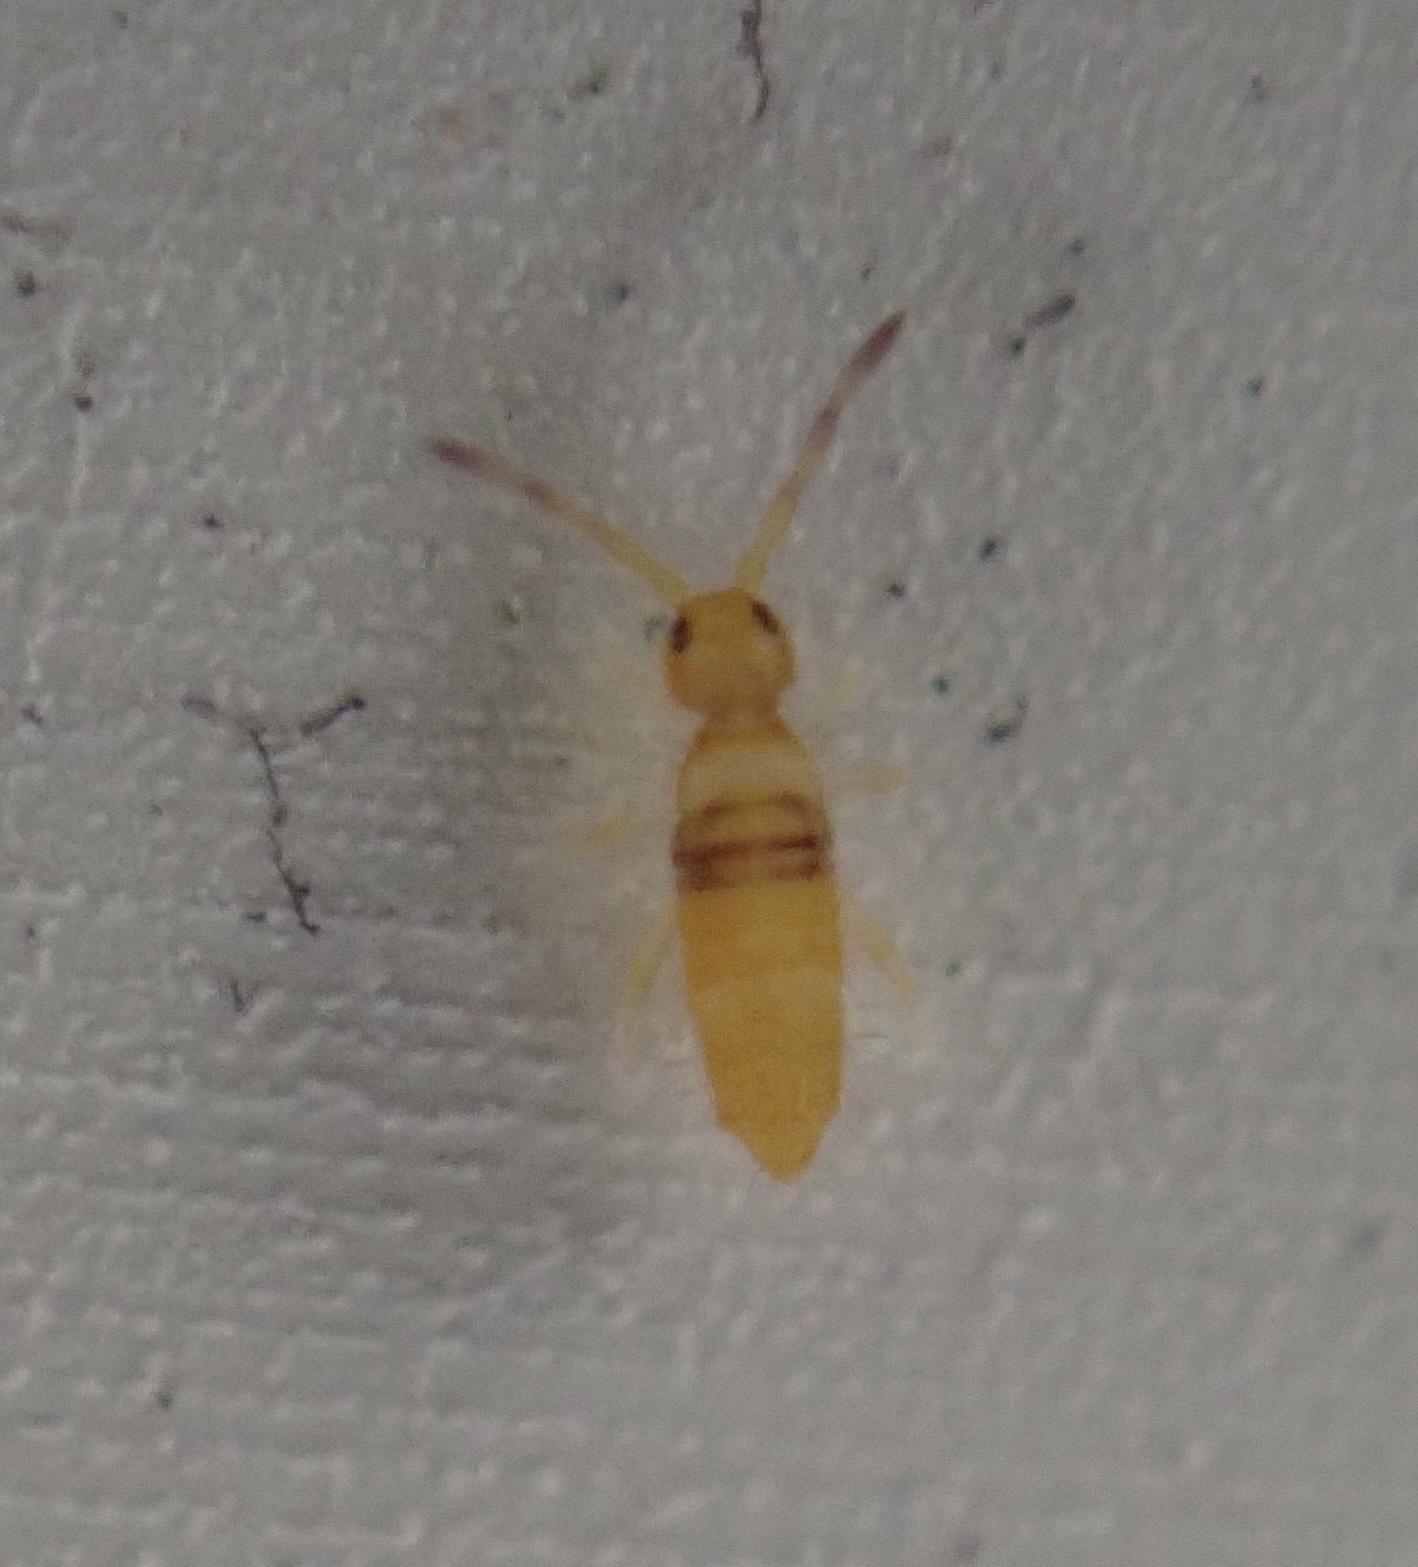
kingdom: Animalia
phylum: Arthropoda
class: Collembola
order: Entomobryomorpha
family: Entomobryidae
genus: Entomobrya
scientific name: Entomobrya atrocincta
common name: Springtail
